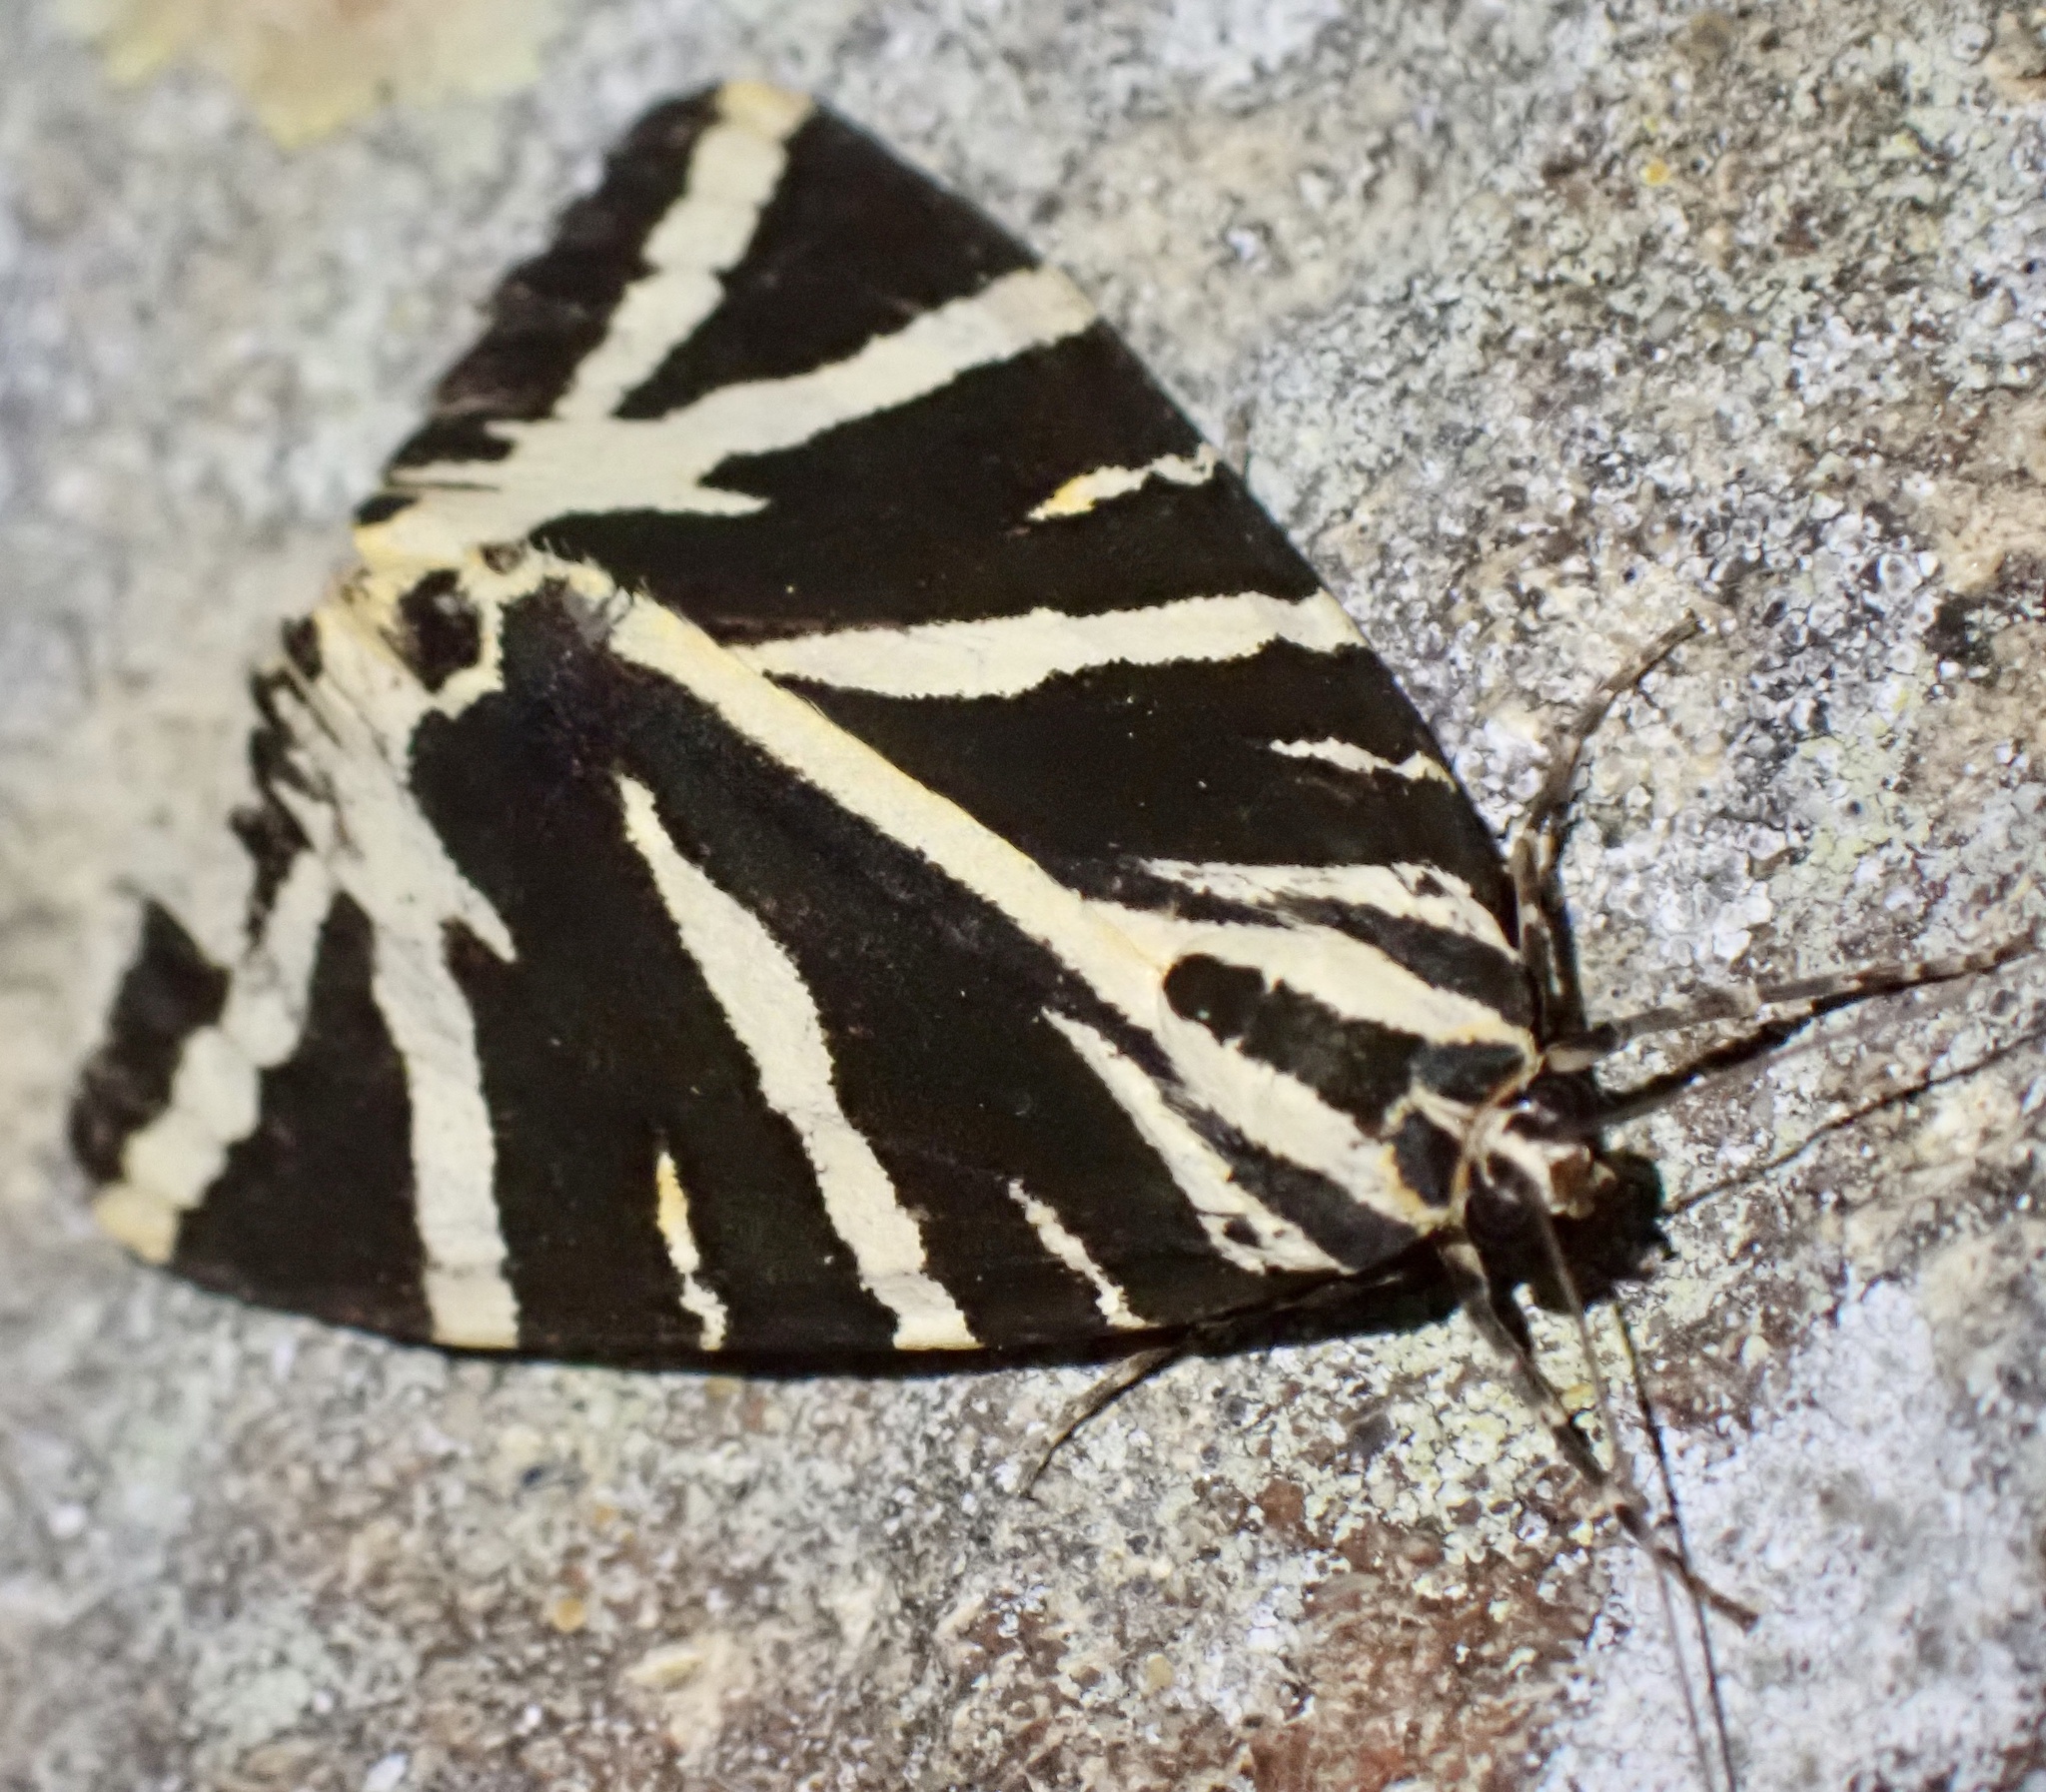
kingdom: Animalia
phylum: Arthropoda
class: Insecta
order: Lepidoptera
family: Erebidae
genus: Euplagia
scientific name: Euplagia quadripunctaria
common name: Jersey tiger
